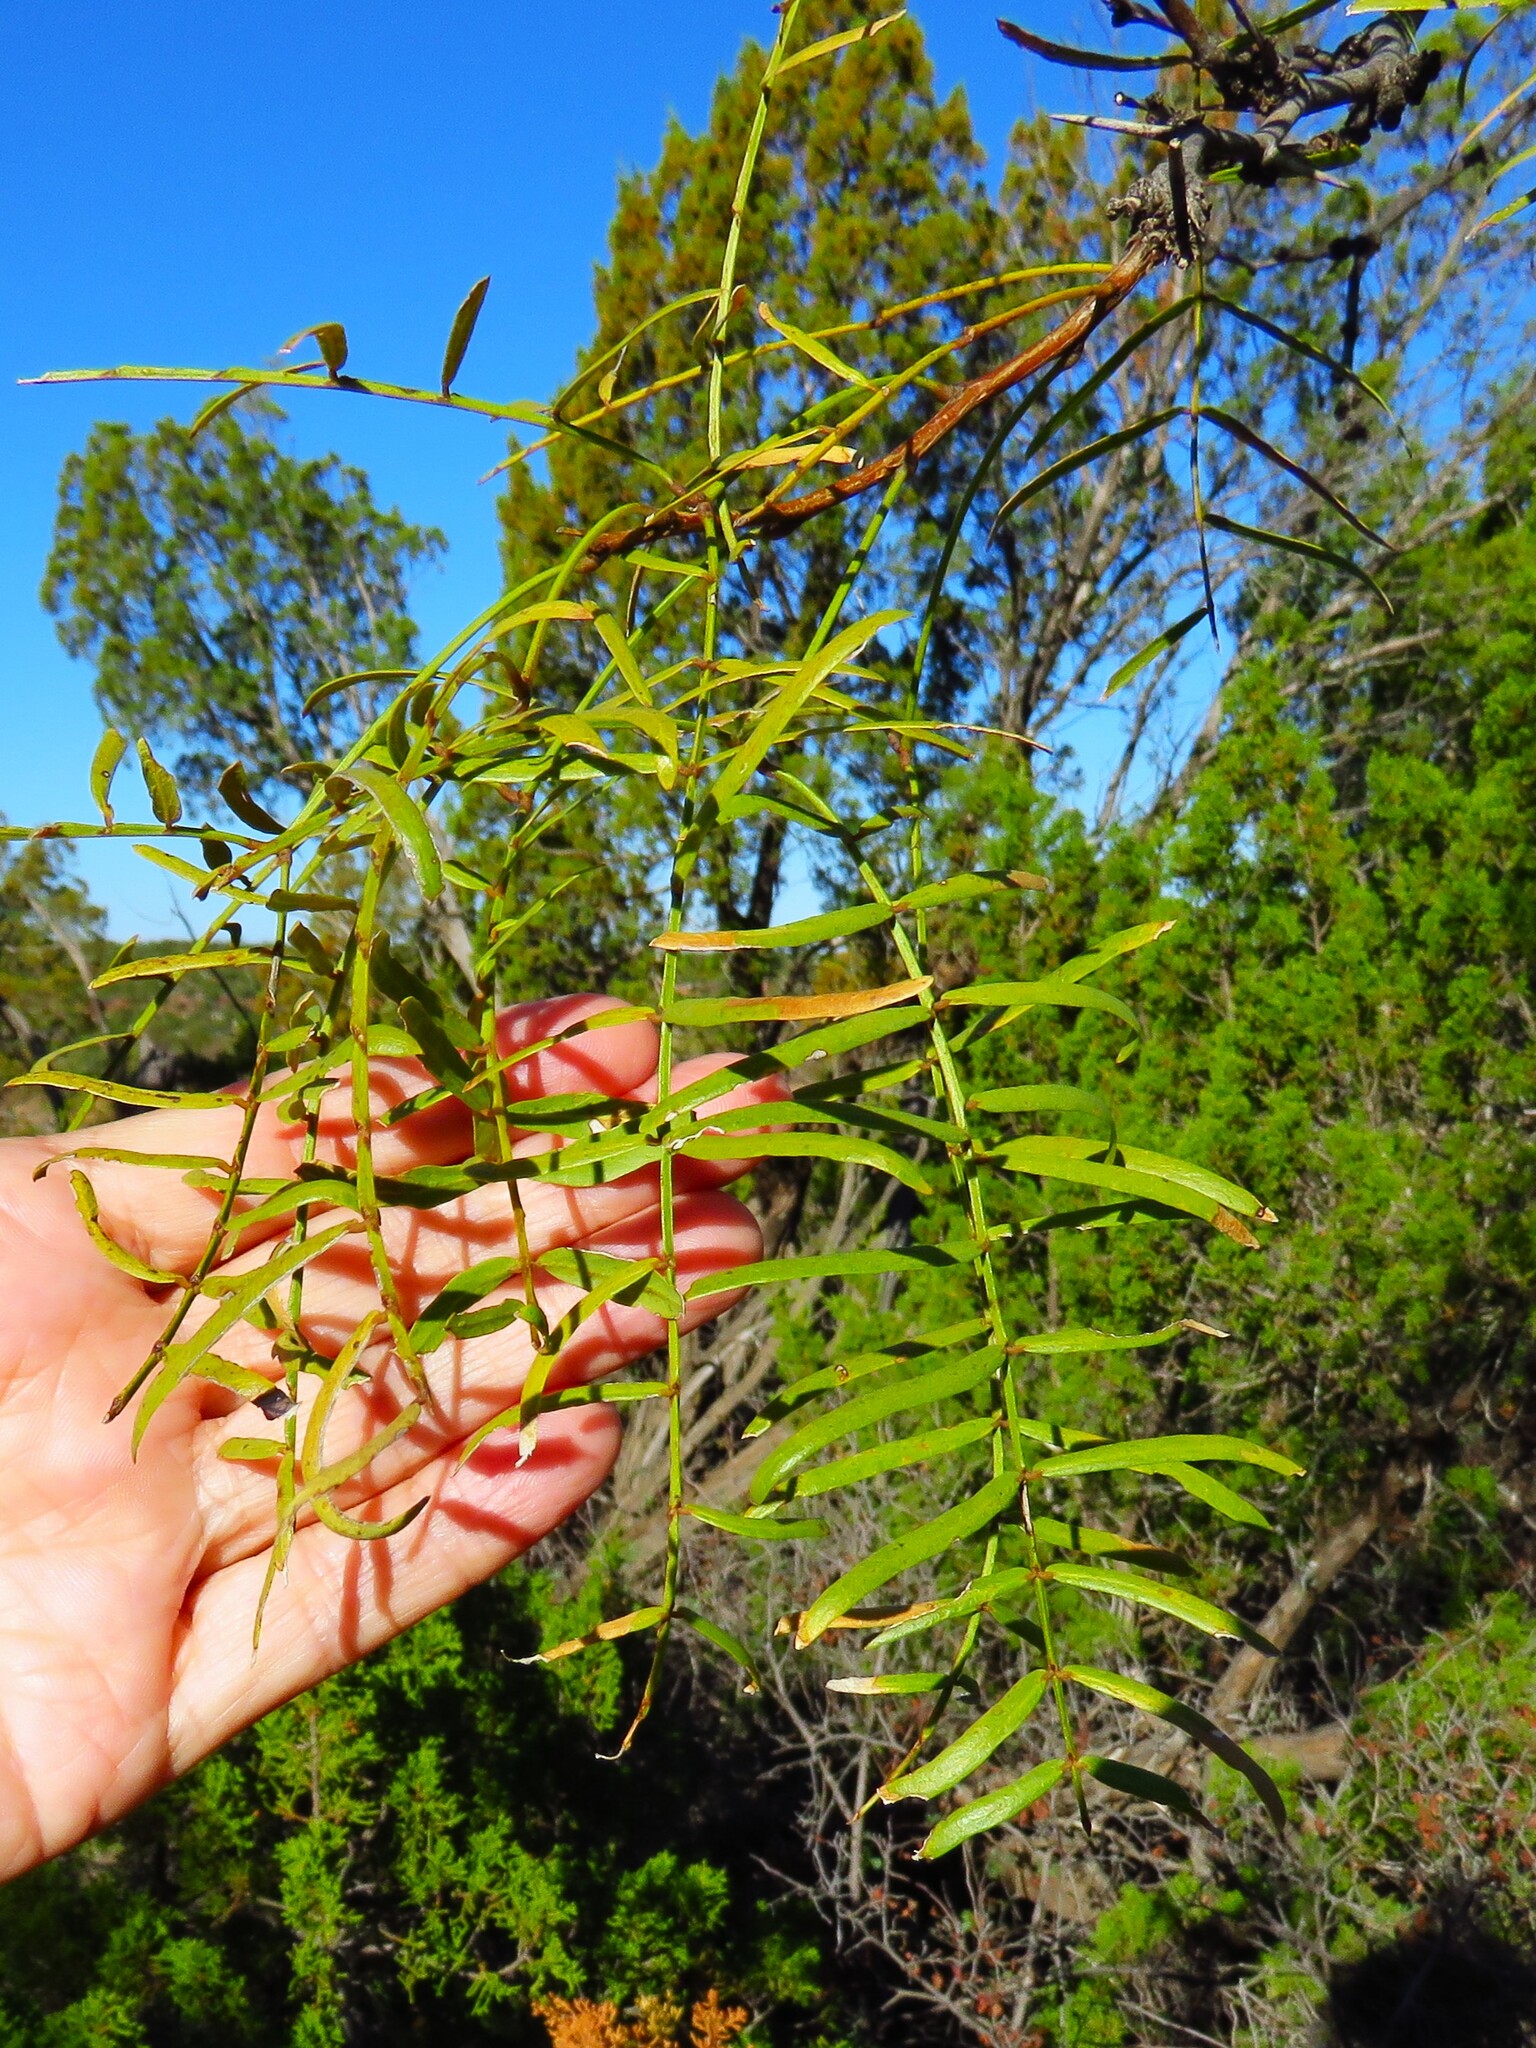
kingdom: Plantae
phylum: Tracheophyta
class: Magnoliopsida
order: Fabales
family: Fabaceae
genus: Prosopis
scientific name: Prosopis glandulosa
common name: Honey mesquite
